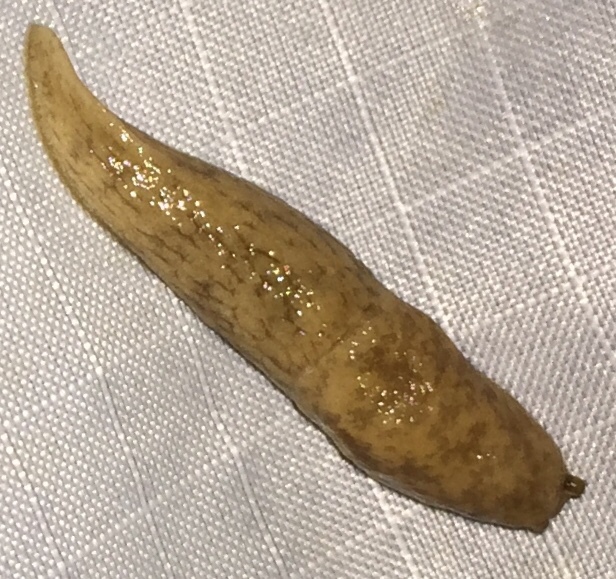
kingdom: Animalia
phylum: Mollusca
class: Gastropoda
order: Stylommatophora
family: Agriolimacidae
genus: Deroceras
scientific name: Deroceras reticulatum
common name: Gray field slug
